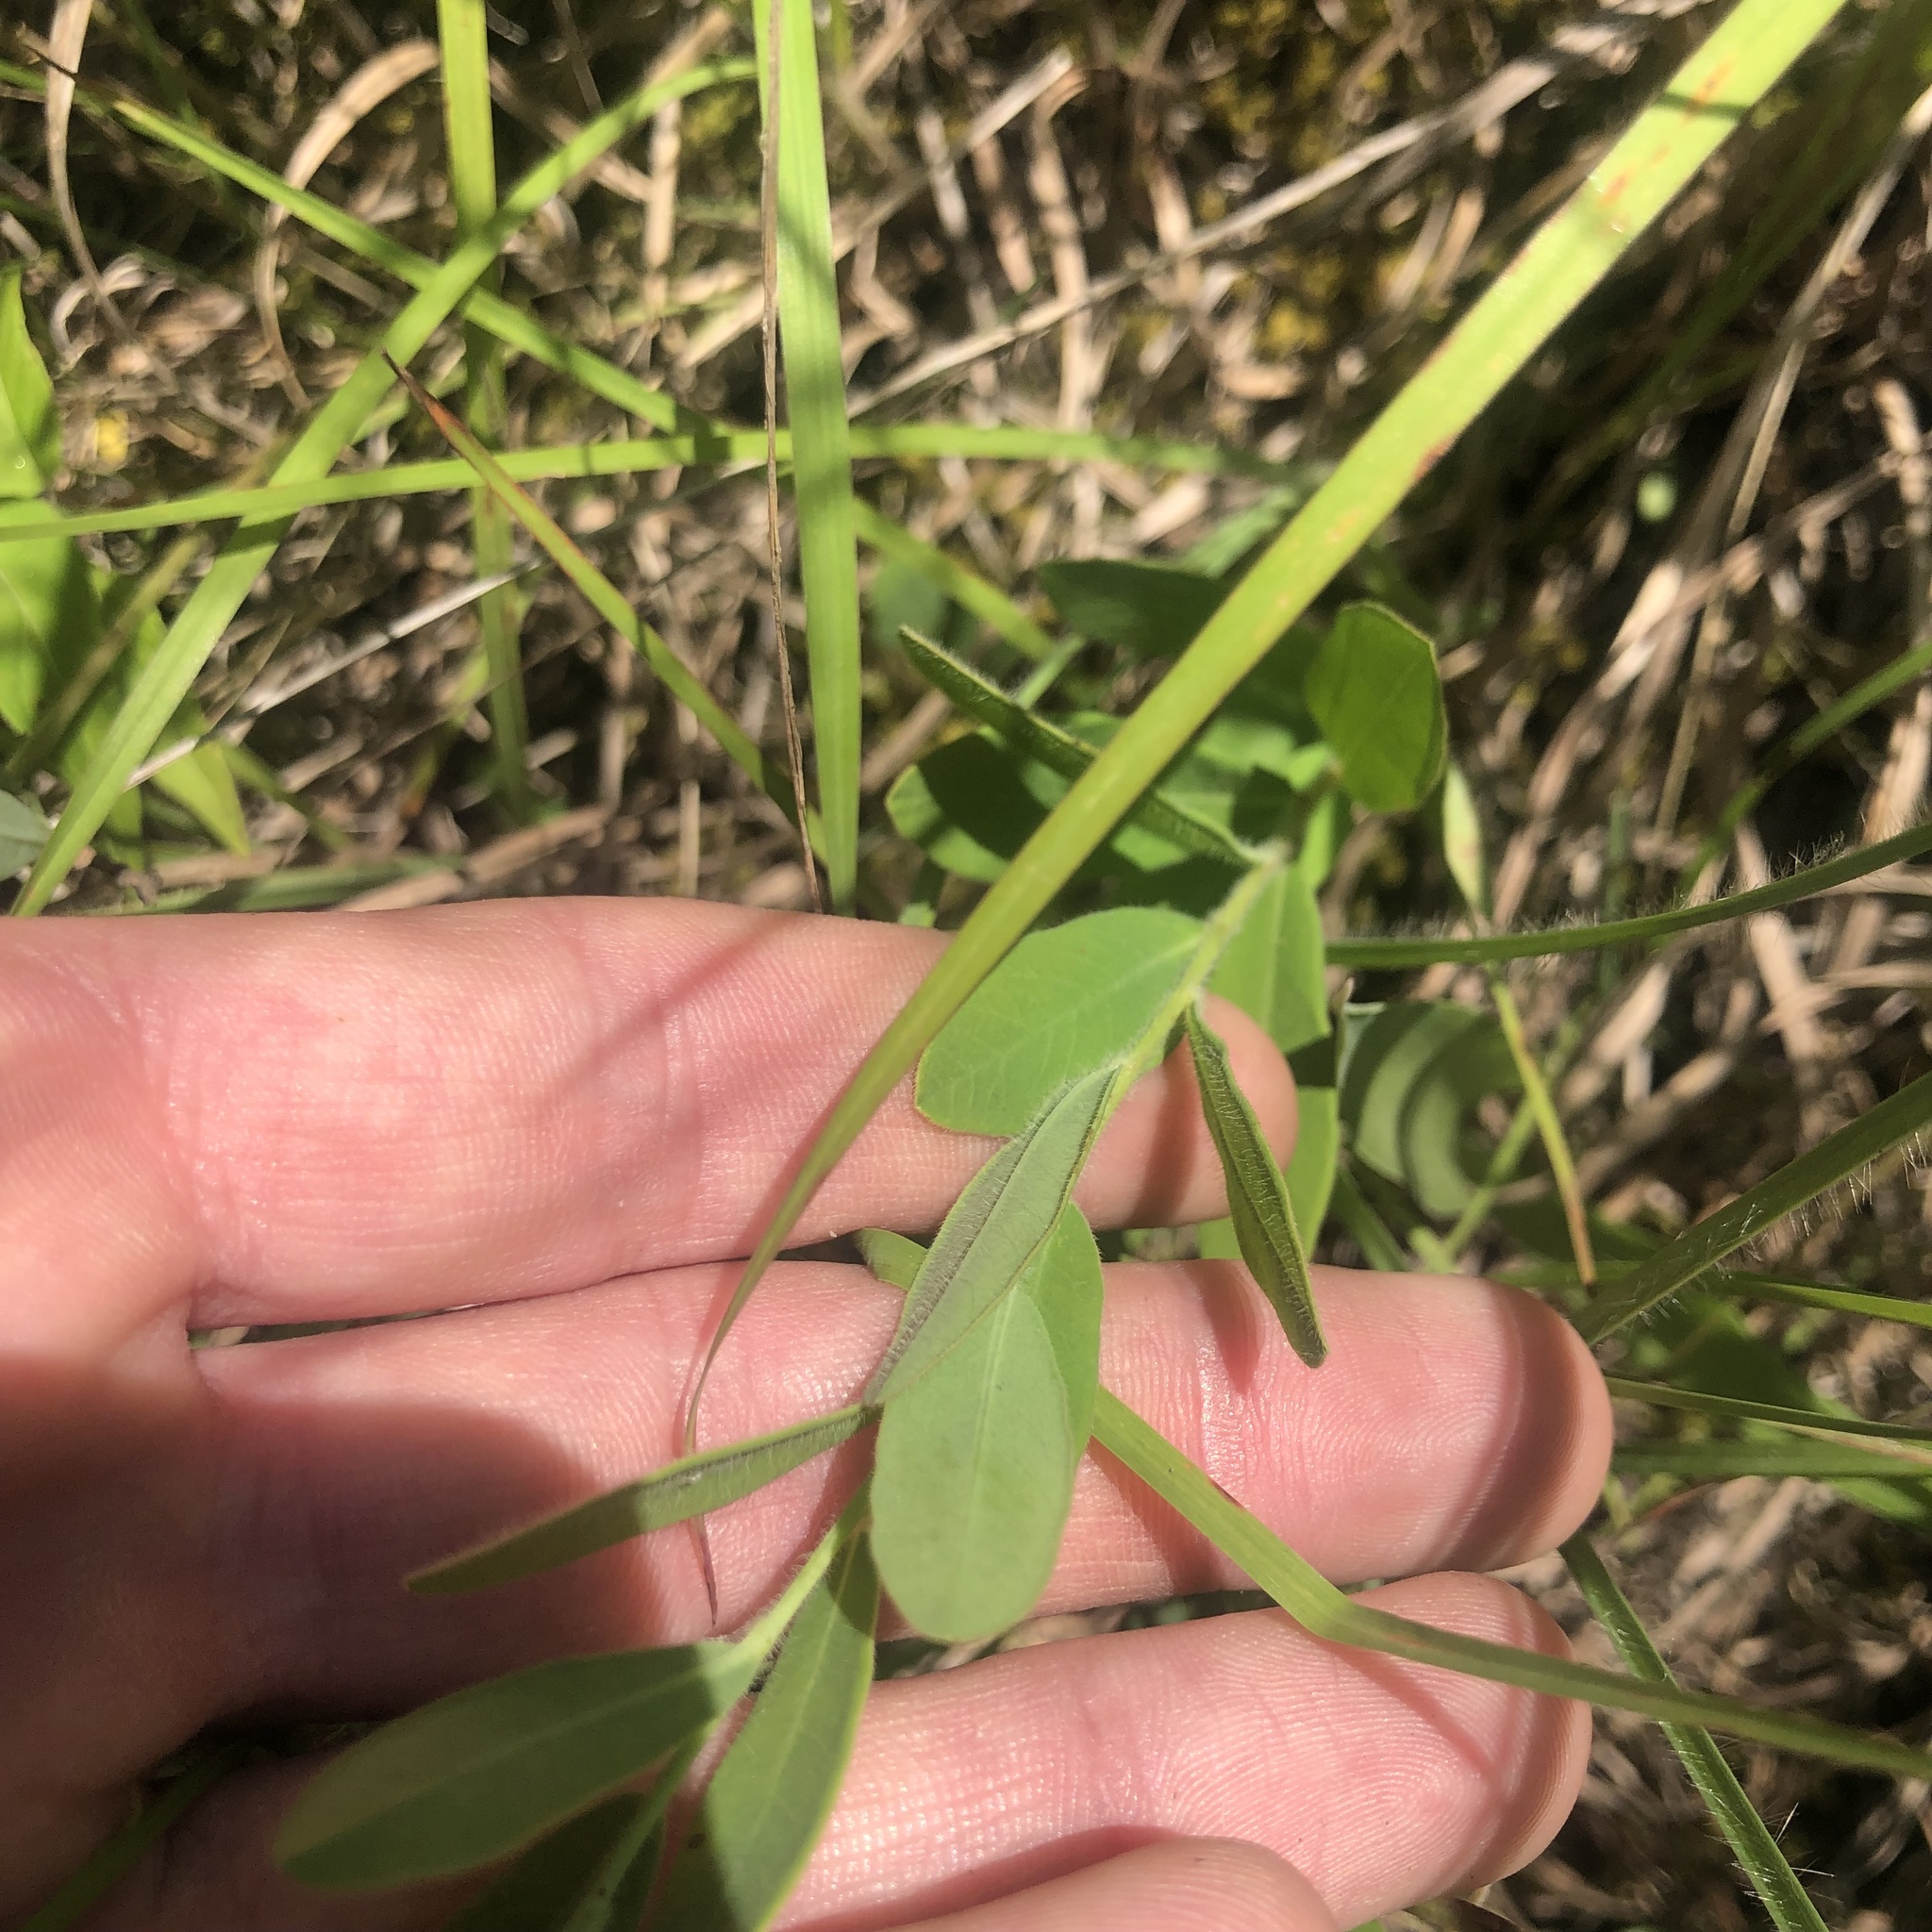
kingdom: Plantae
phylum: Tracheophyta
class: Magnoliopsida
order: Malpighiales
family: Euphorbiaceae
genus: Euphorbia
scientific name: Euphorbia corollata
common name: Flowering spurge
